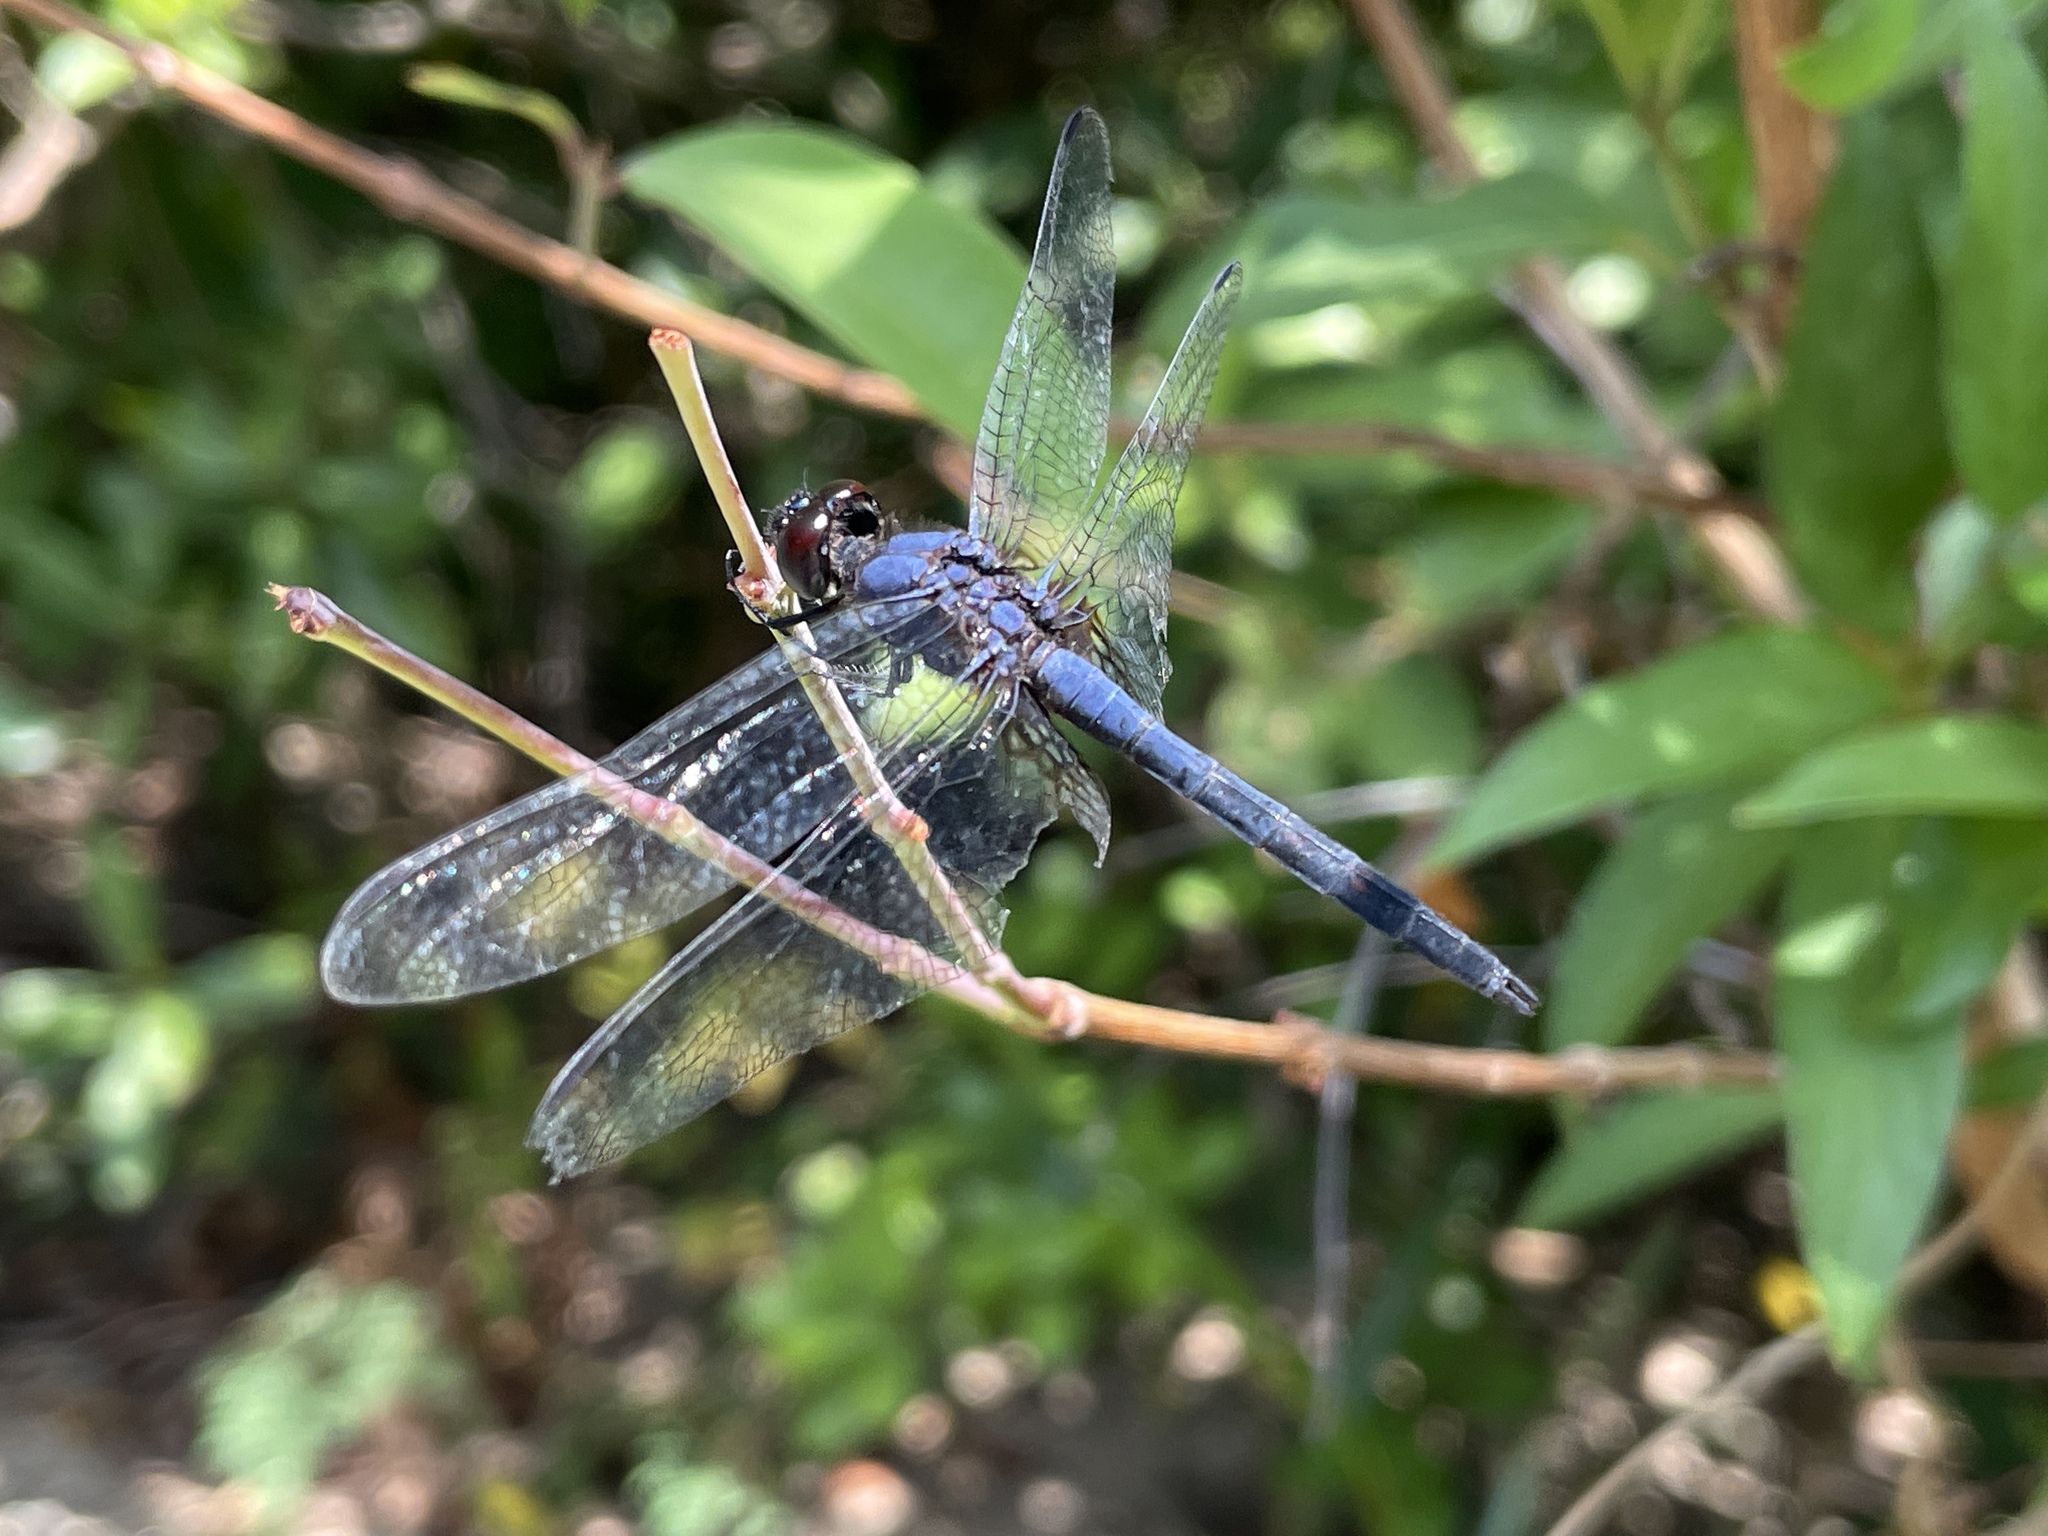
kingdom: Animalia
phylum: Arthropoda
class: Insecta
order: Odonata
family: Libellulidae
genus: Trithemis
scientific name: Trithemis festiva
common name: Indigo dropwing
